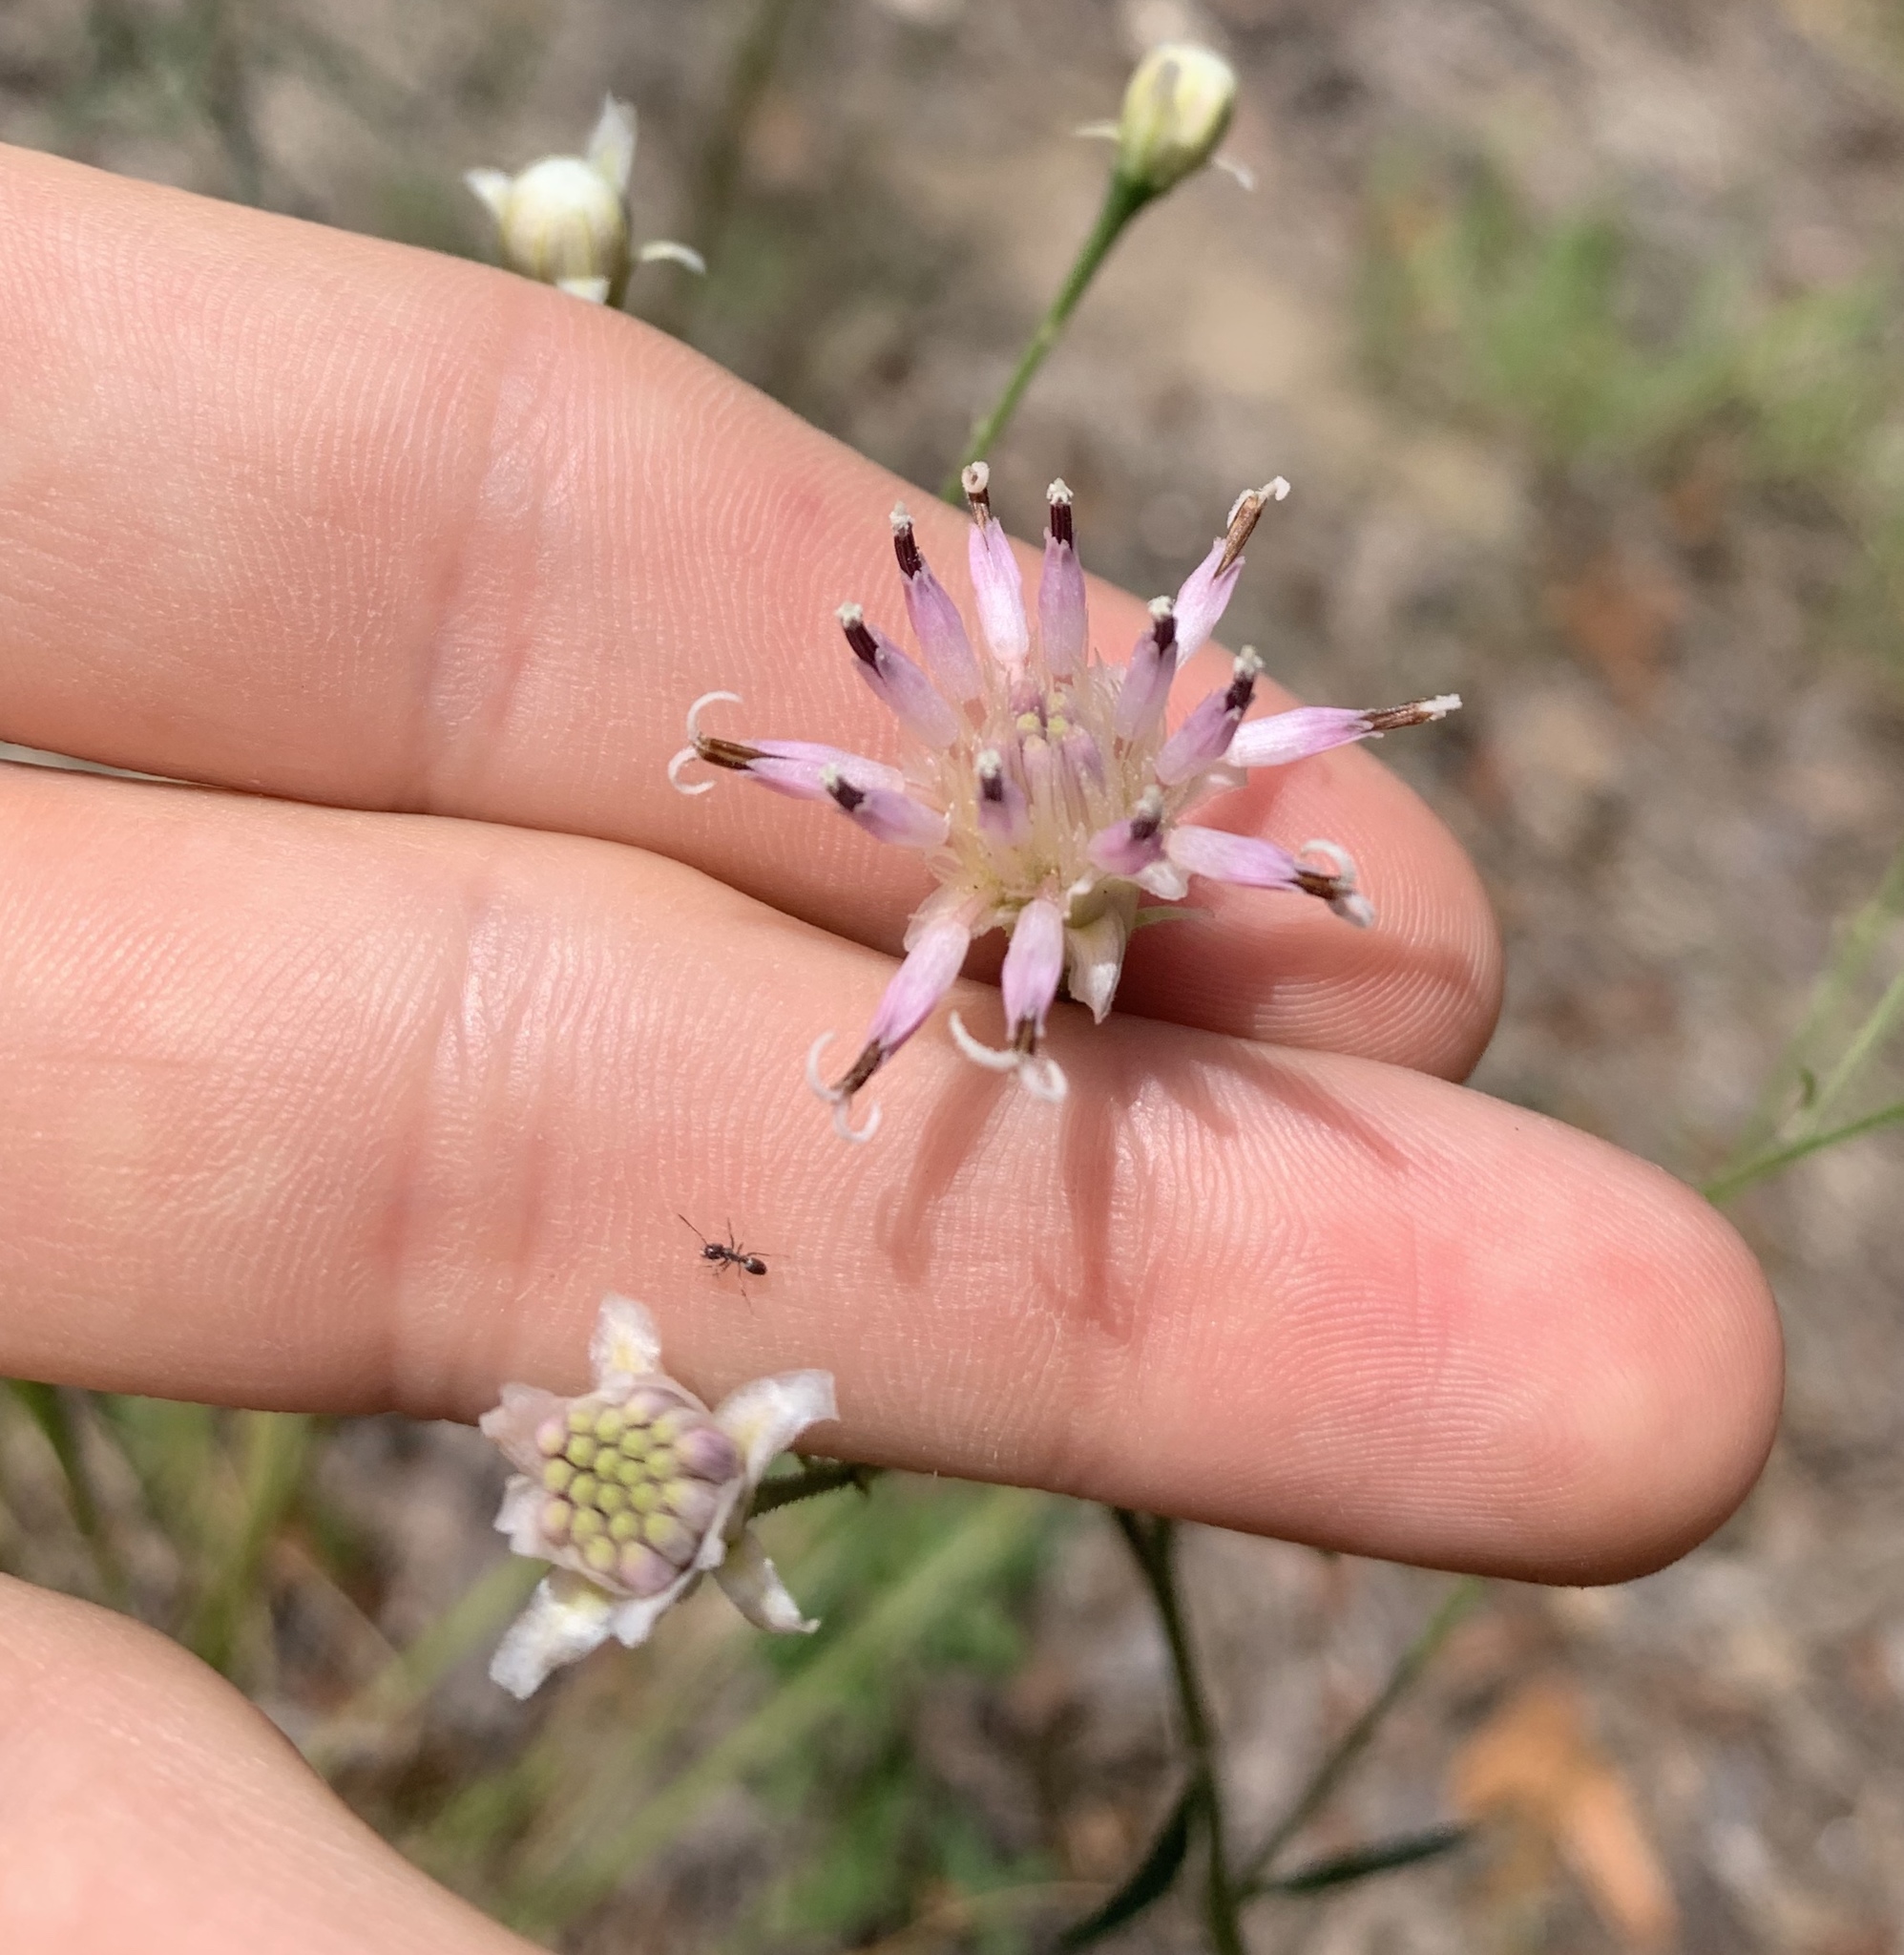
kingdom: Plantae
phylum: Tracheophyta
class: Magnoliopsida
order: Asterales
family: Asteraceae
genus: Palafoxia
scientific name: Palafoxia integrifolia
